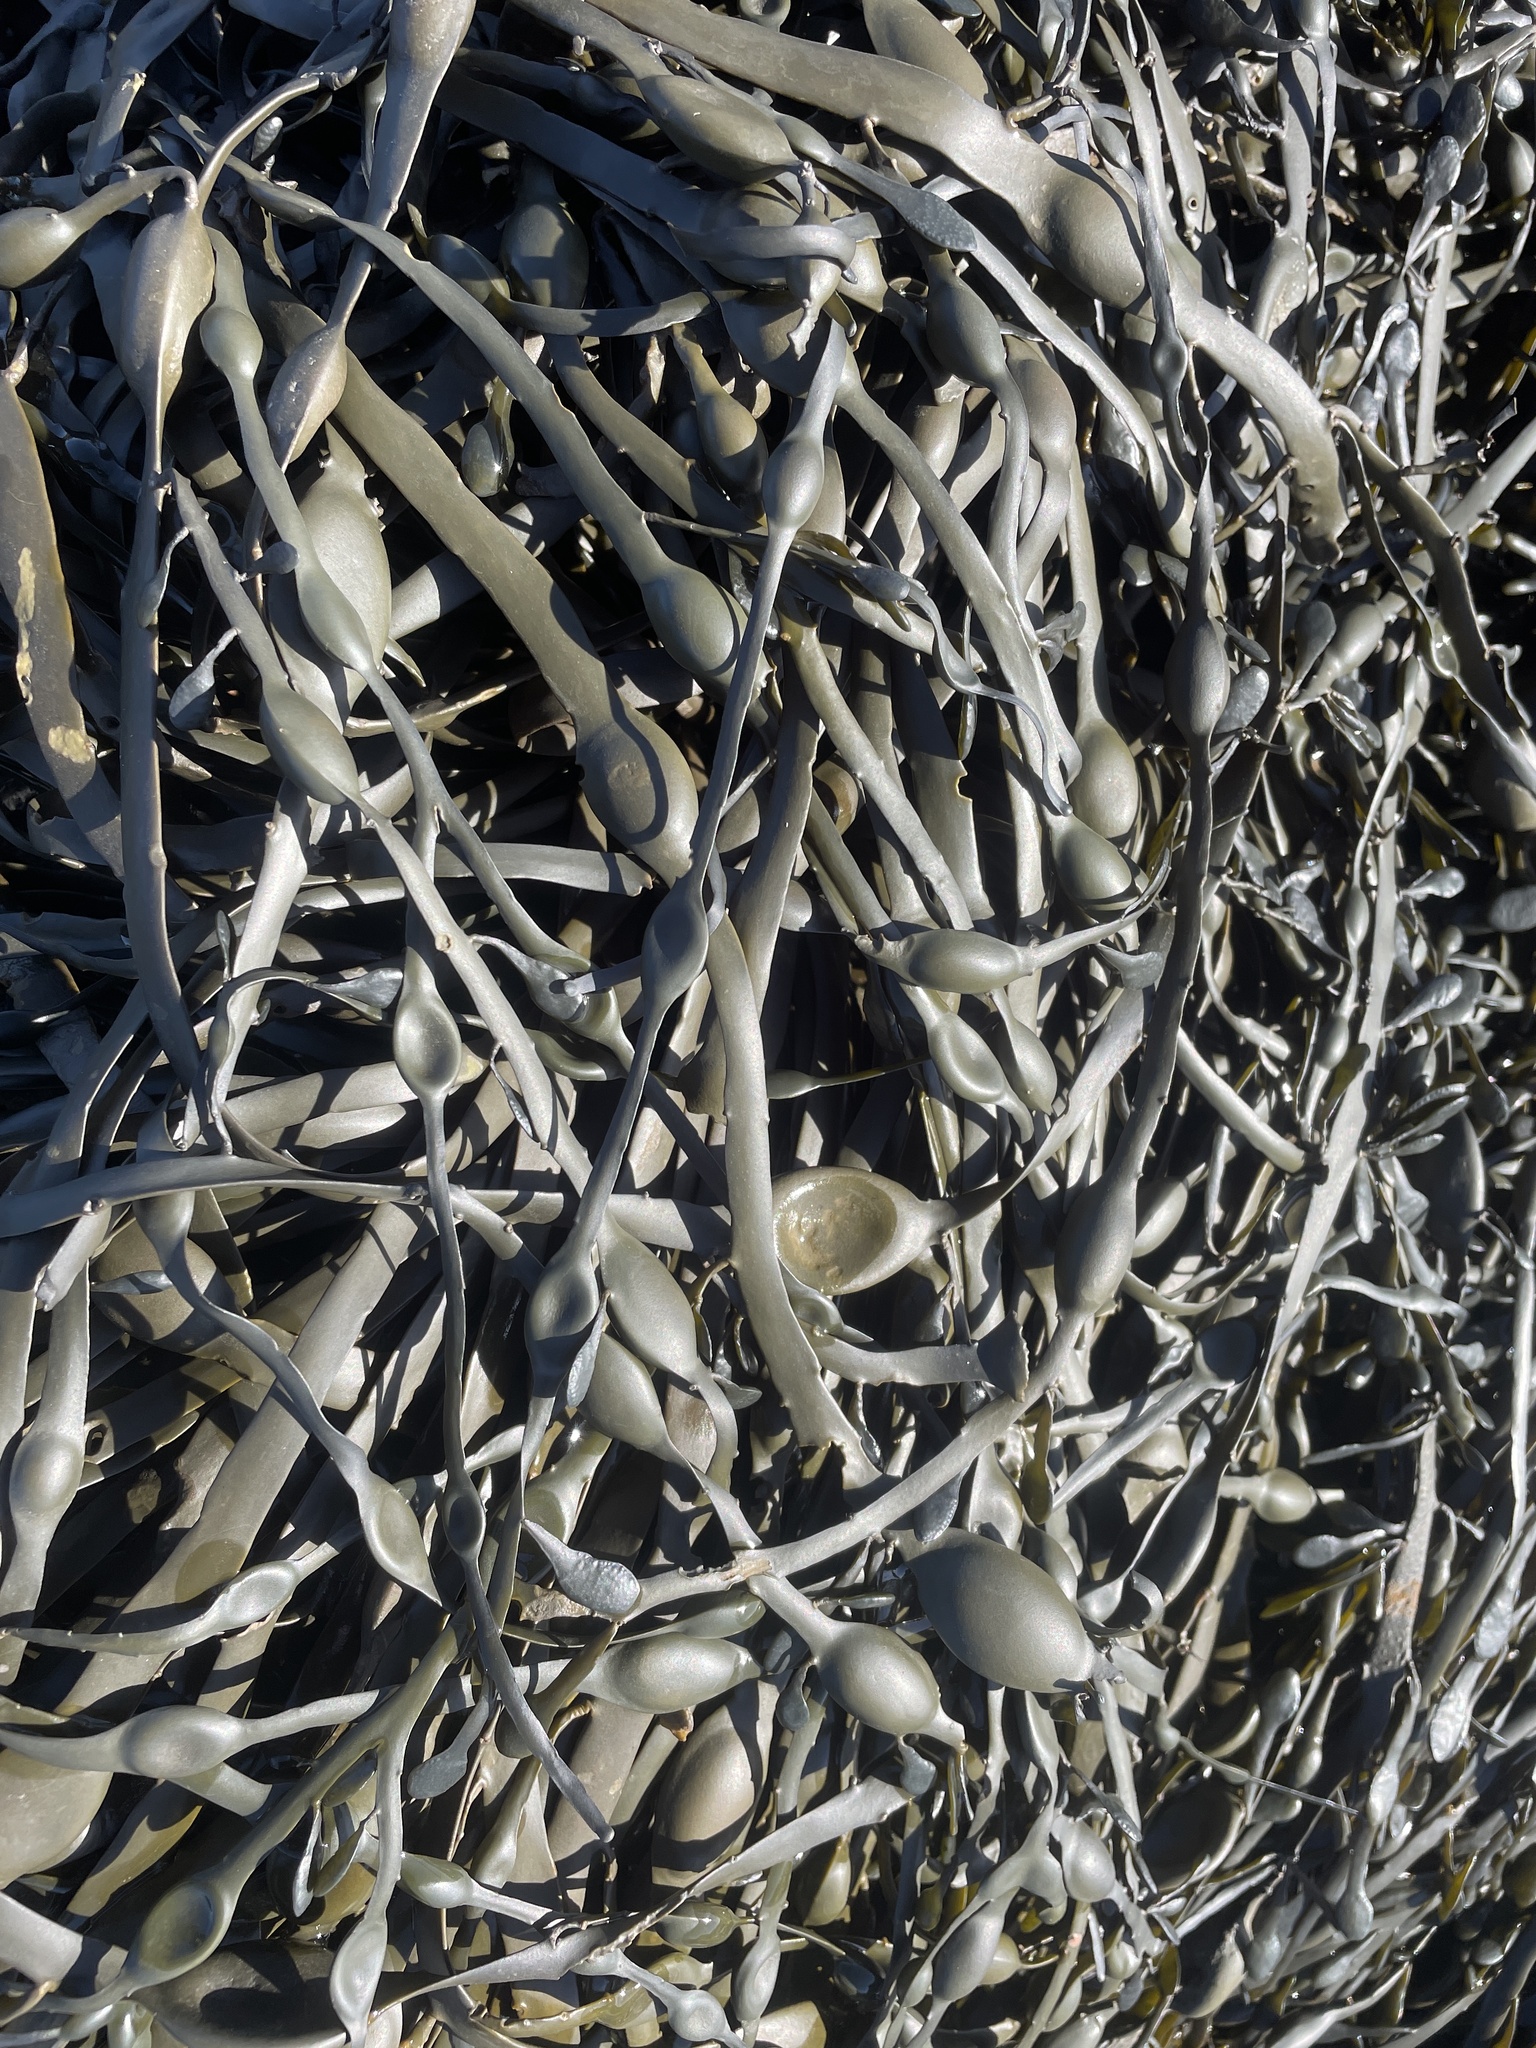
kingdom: Chromista
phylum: Ochrophyta
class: Phaeophyceae
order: Fucales
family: Fucaceae
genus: Ascophyllum
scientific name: Ascophyllum nodosum
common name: Knotted wrack
